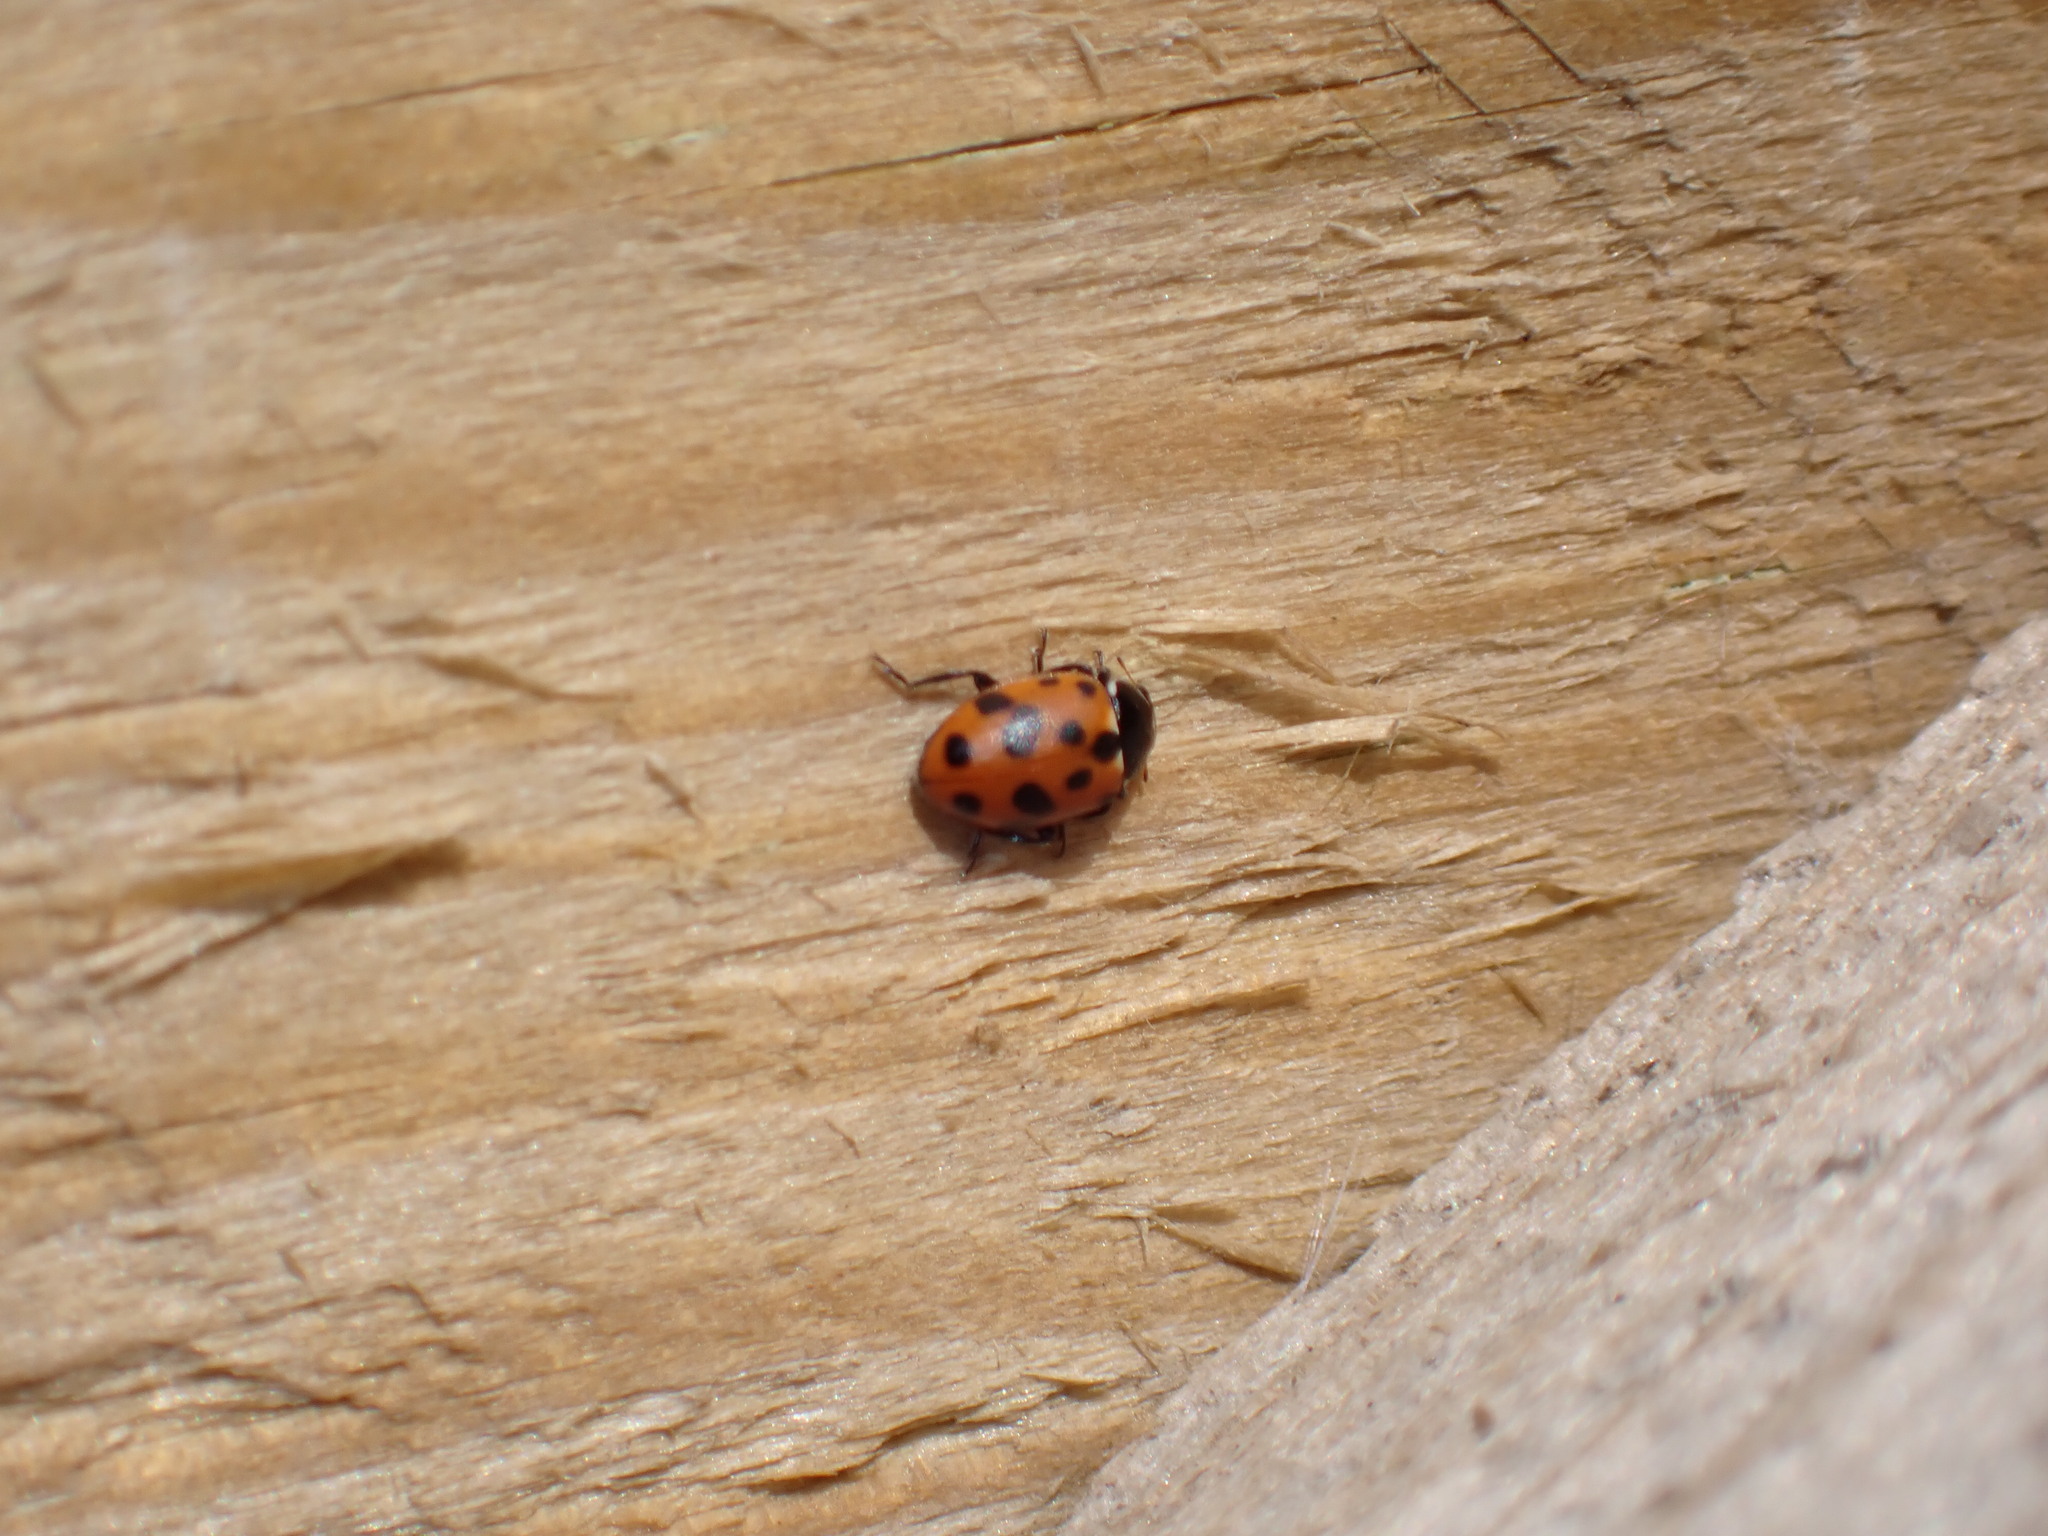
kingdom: Animalia
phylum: Arthropoda
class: Insecta
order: Coleoptera
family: Coccinellidae
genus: Hippodamia
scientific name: Hippodamia variegata
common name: Ladybird beetle
